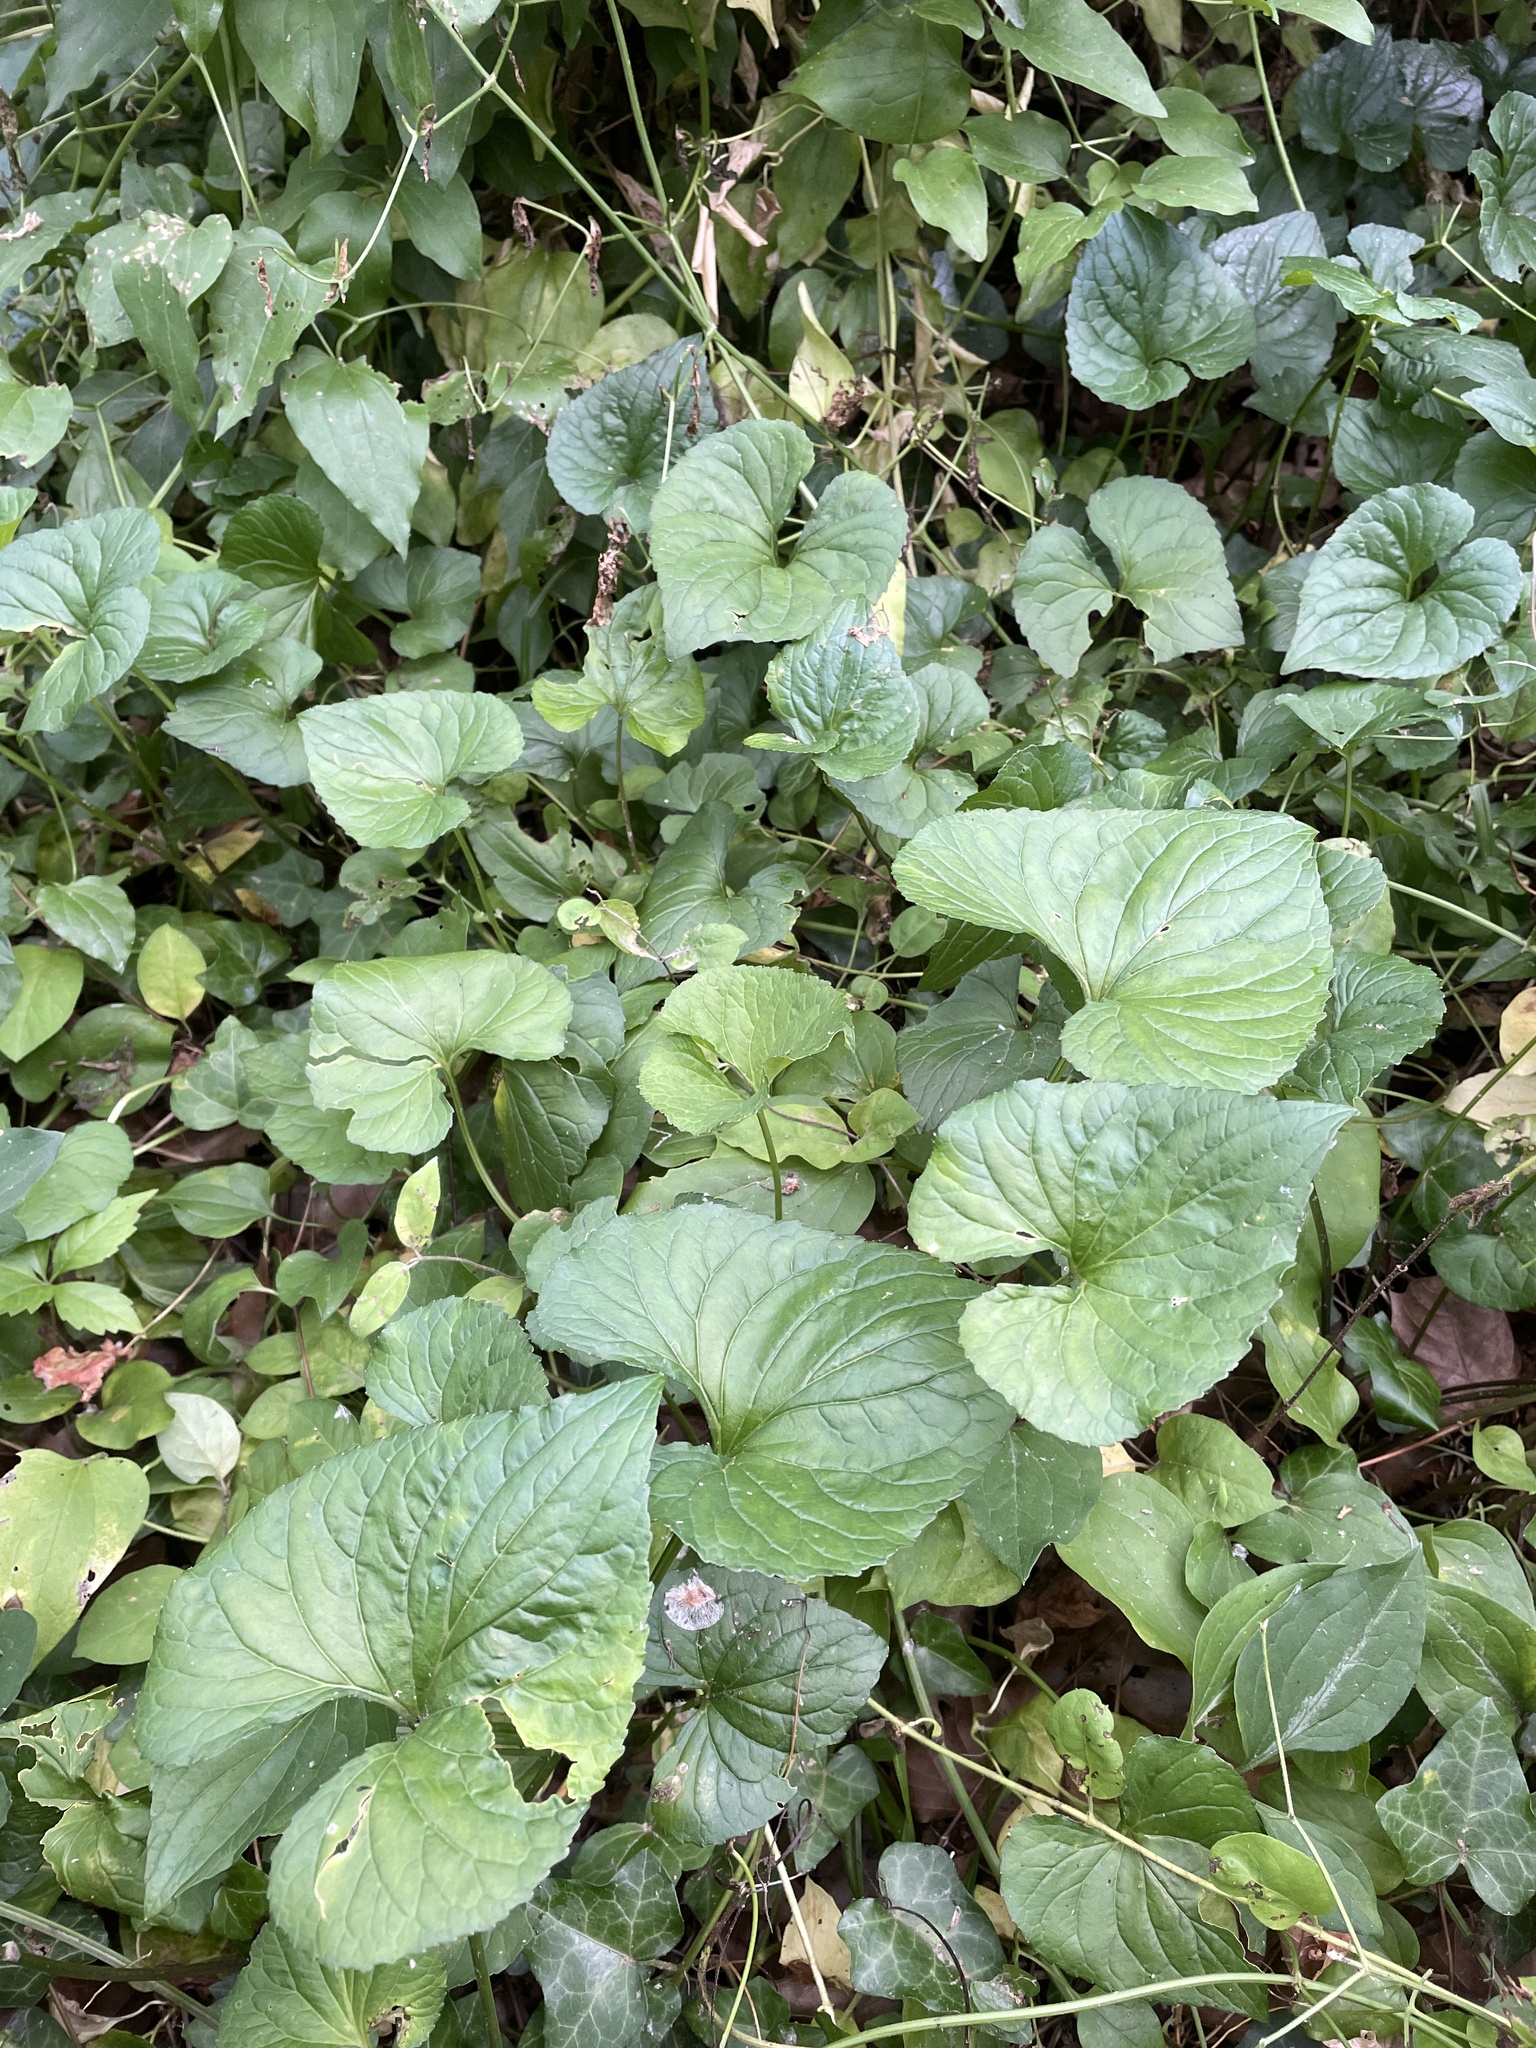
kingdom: Plantae
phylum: Tracheophyta
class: Magnoliopsida
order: Malpighiales
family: Violaceae
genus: Viola
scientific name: Viola sororia
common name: Dooryard violet
